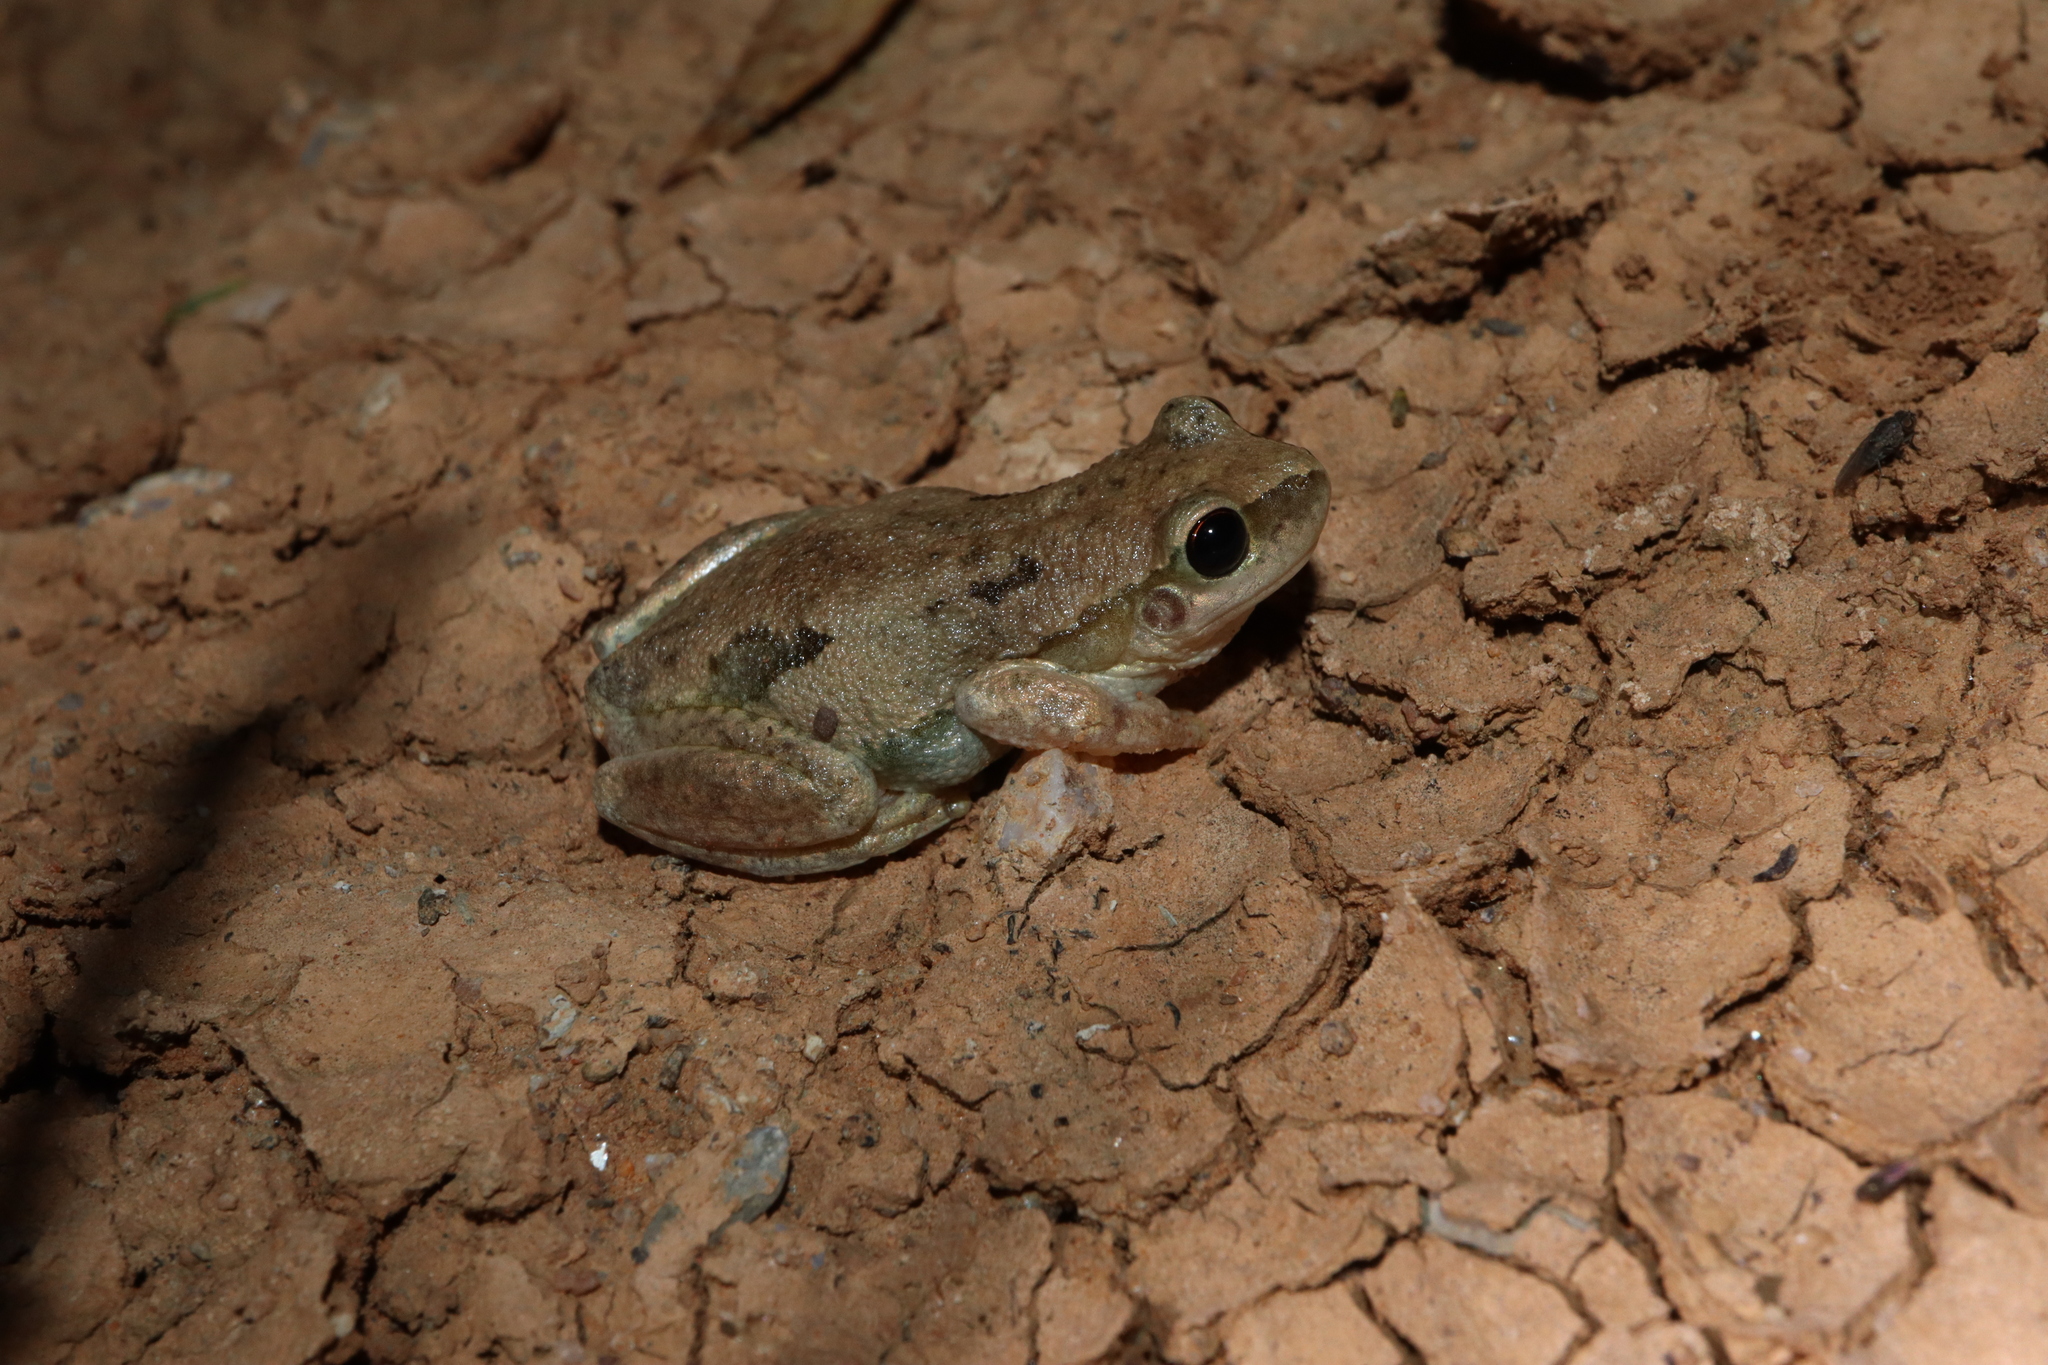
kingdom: Animalia
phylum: Chordata
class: Amphibia
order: Anura
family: Pelodryadidae
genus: Litoria
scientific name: Litoria rubella
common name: Desert tree frog
